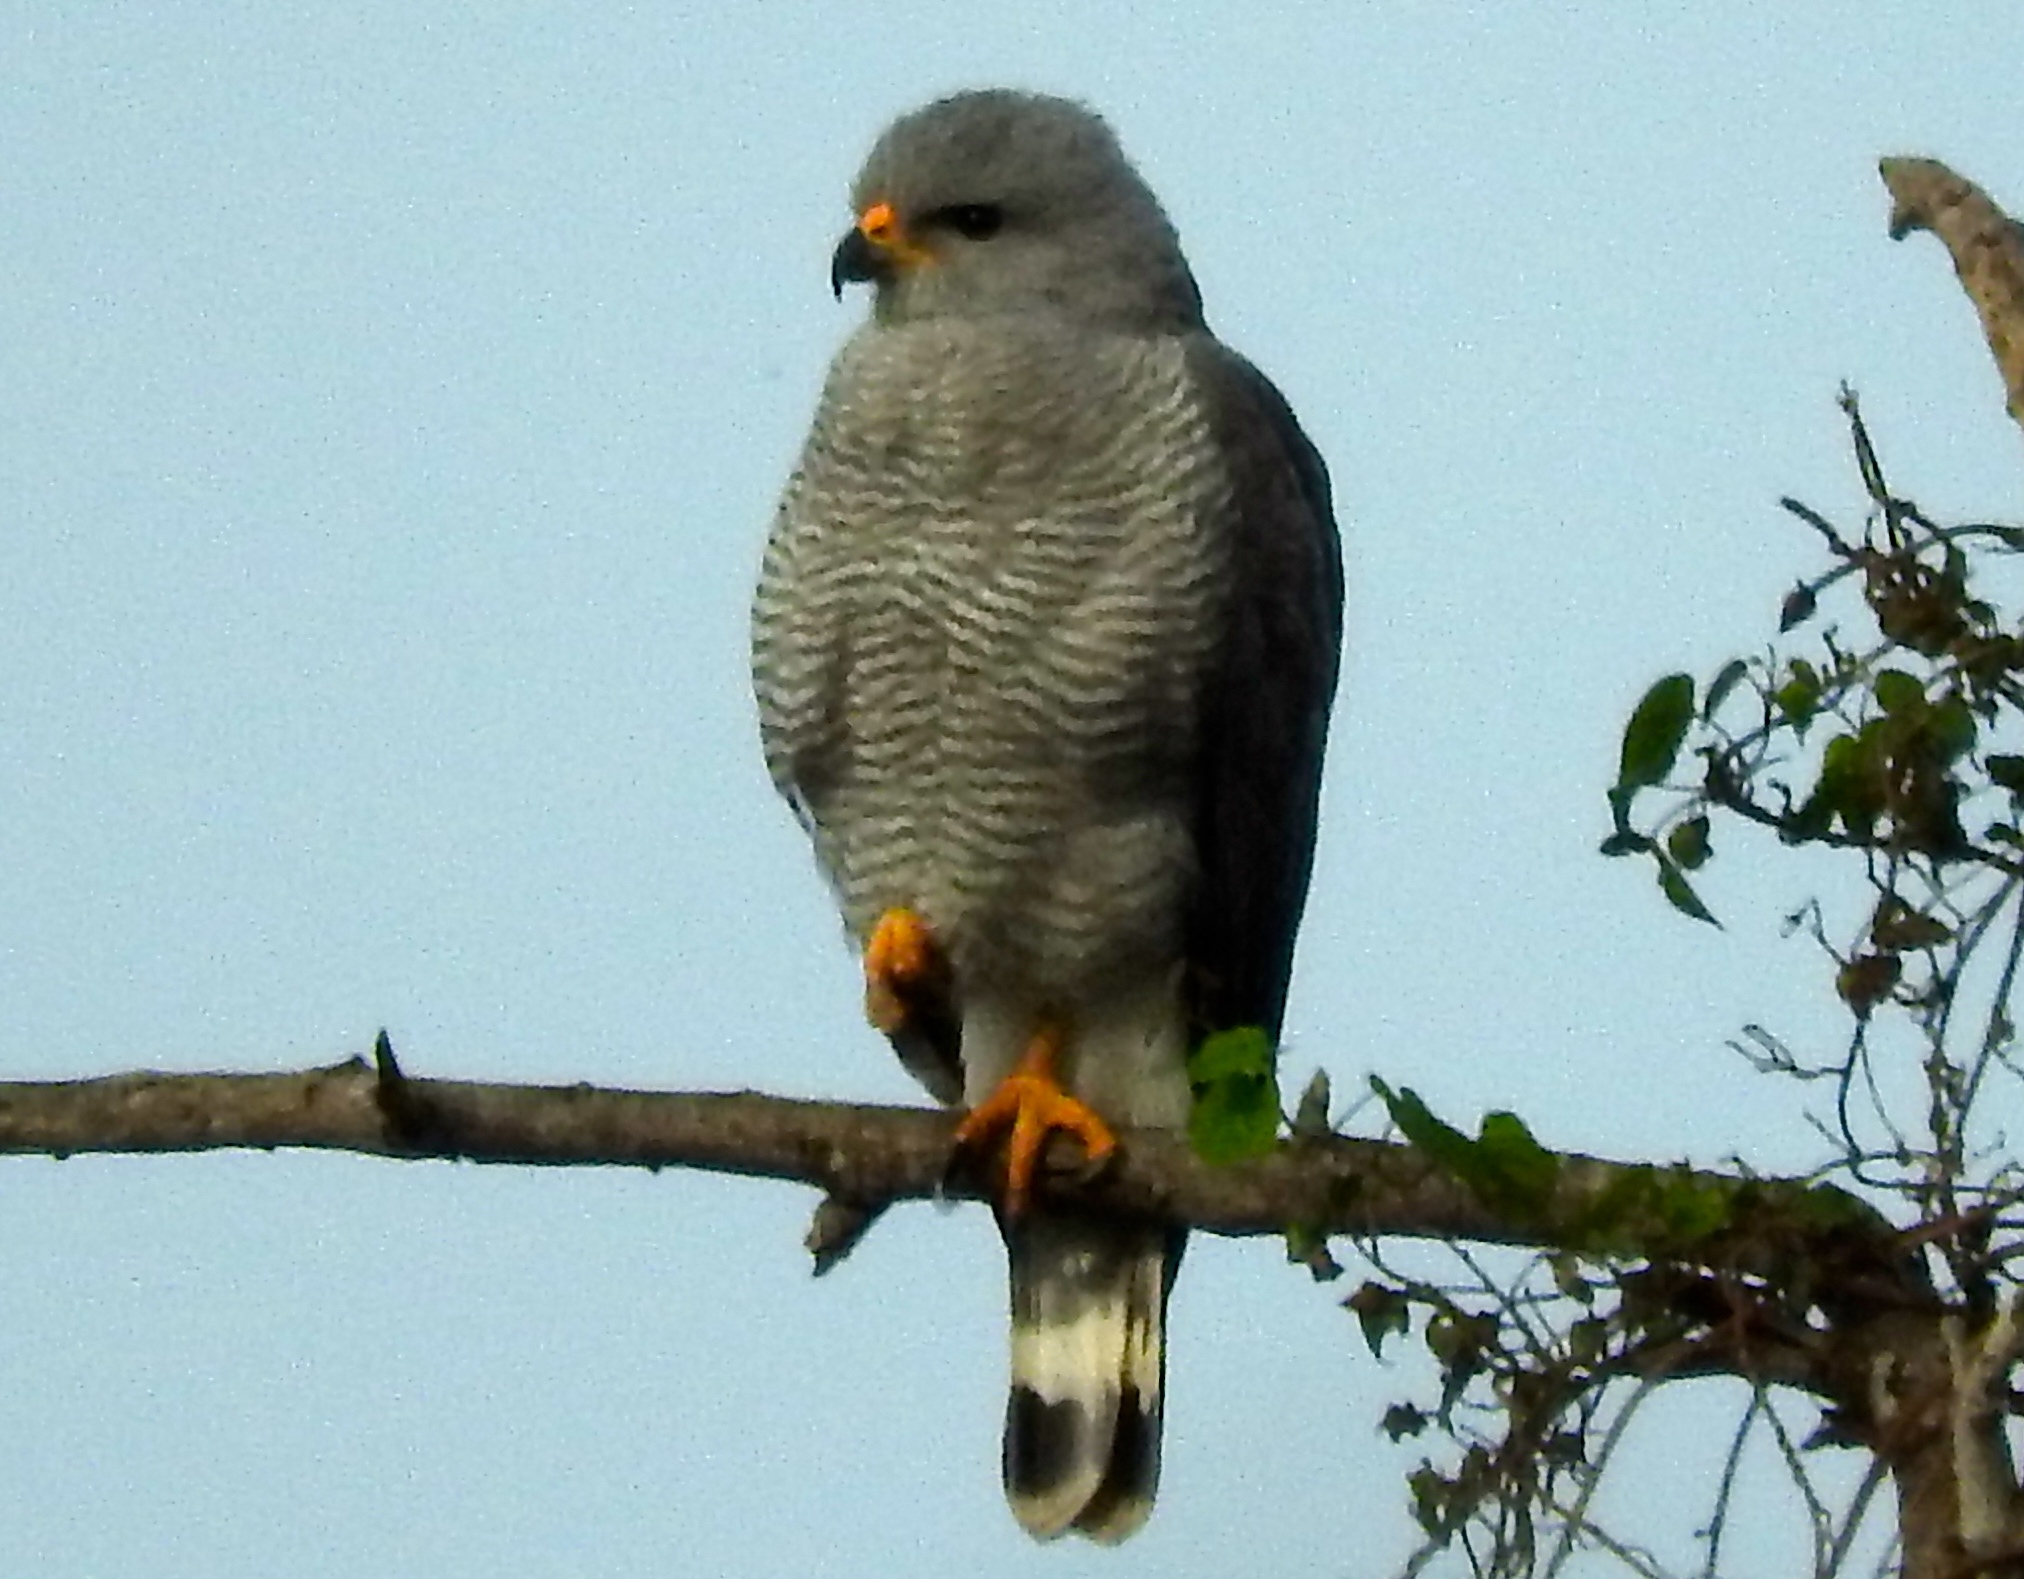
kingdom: Animalia
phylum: Chordata
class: Aves
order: Accipitriformes
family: Accipitridae
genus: Buteo
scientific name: Buteo nitidus
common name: Grey-lined hawk
